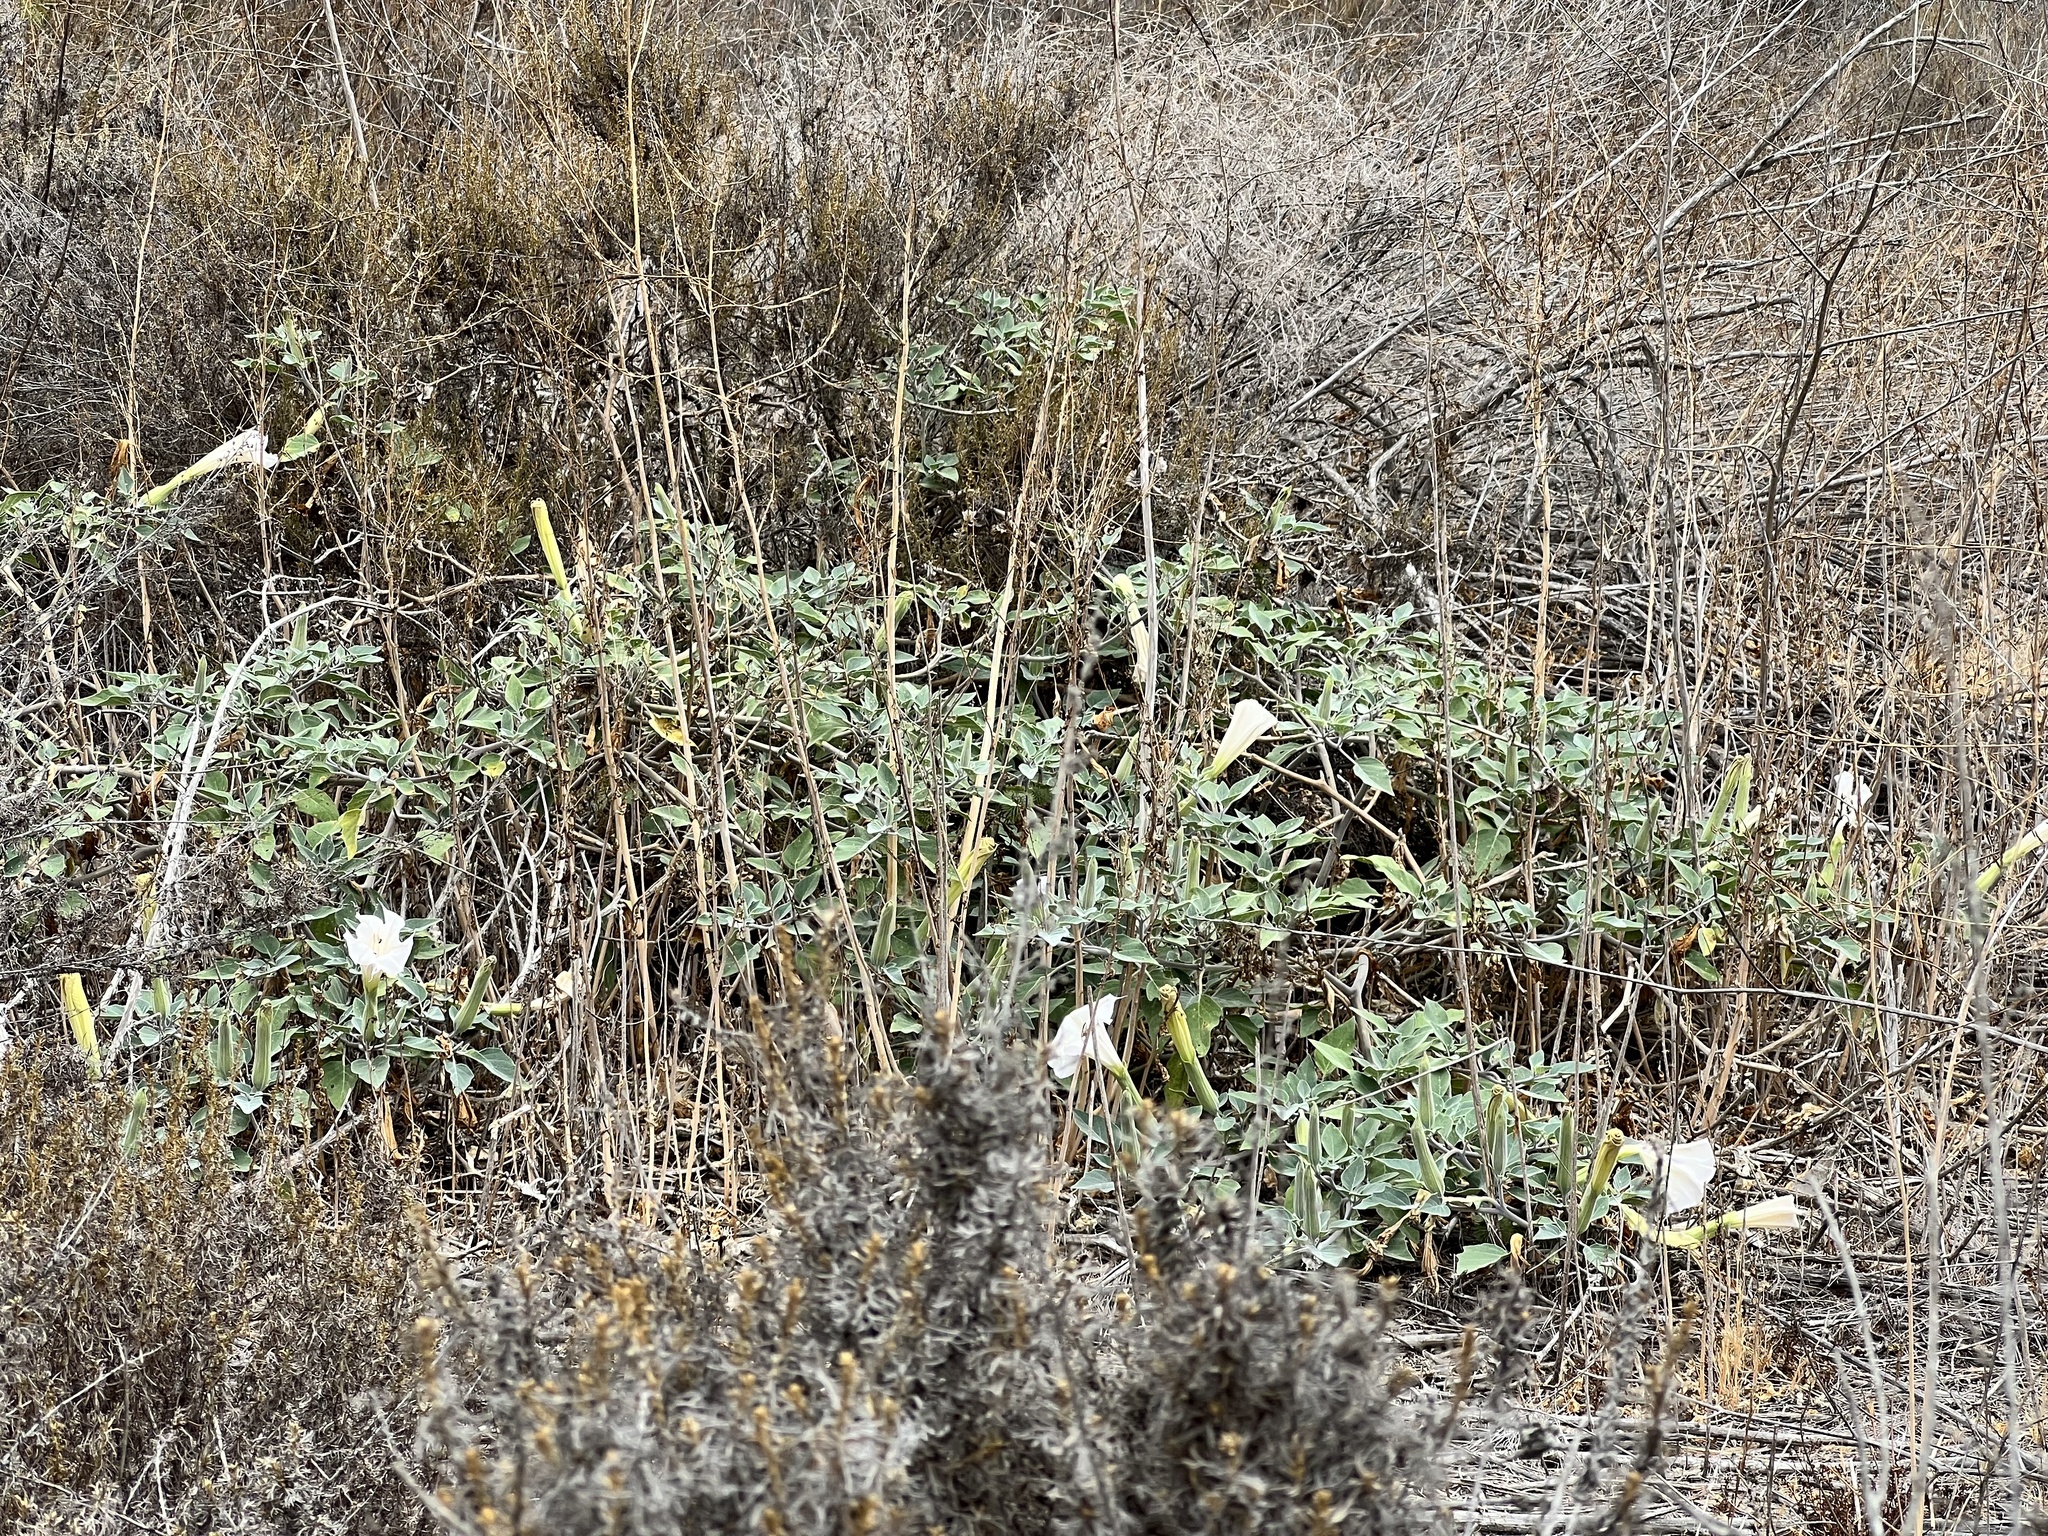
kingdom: Plantae
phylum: Tracheophyta
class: Magnoliopsida
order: Solanales
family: Solanaceae
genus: Datura
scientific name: Datura wrightii
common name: Sacred thorn-apple
